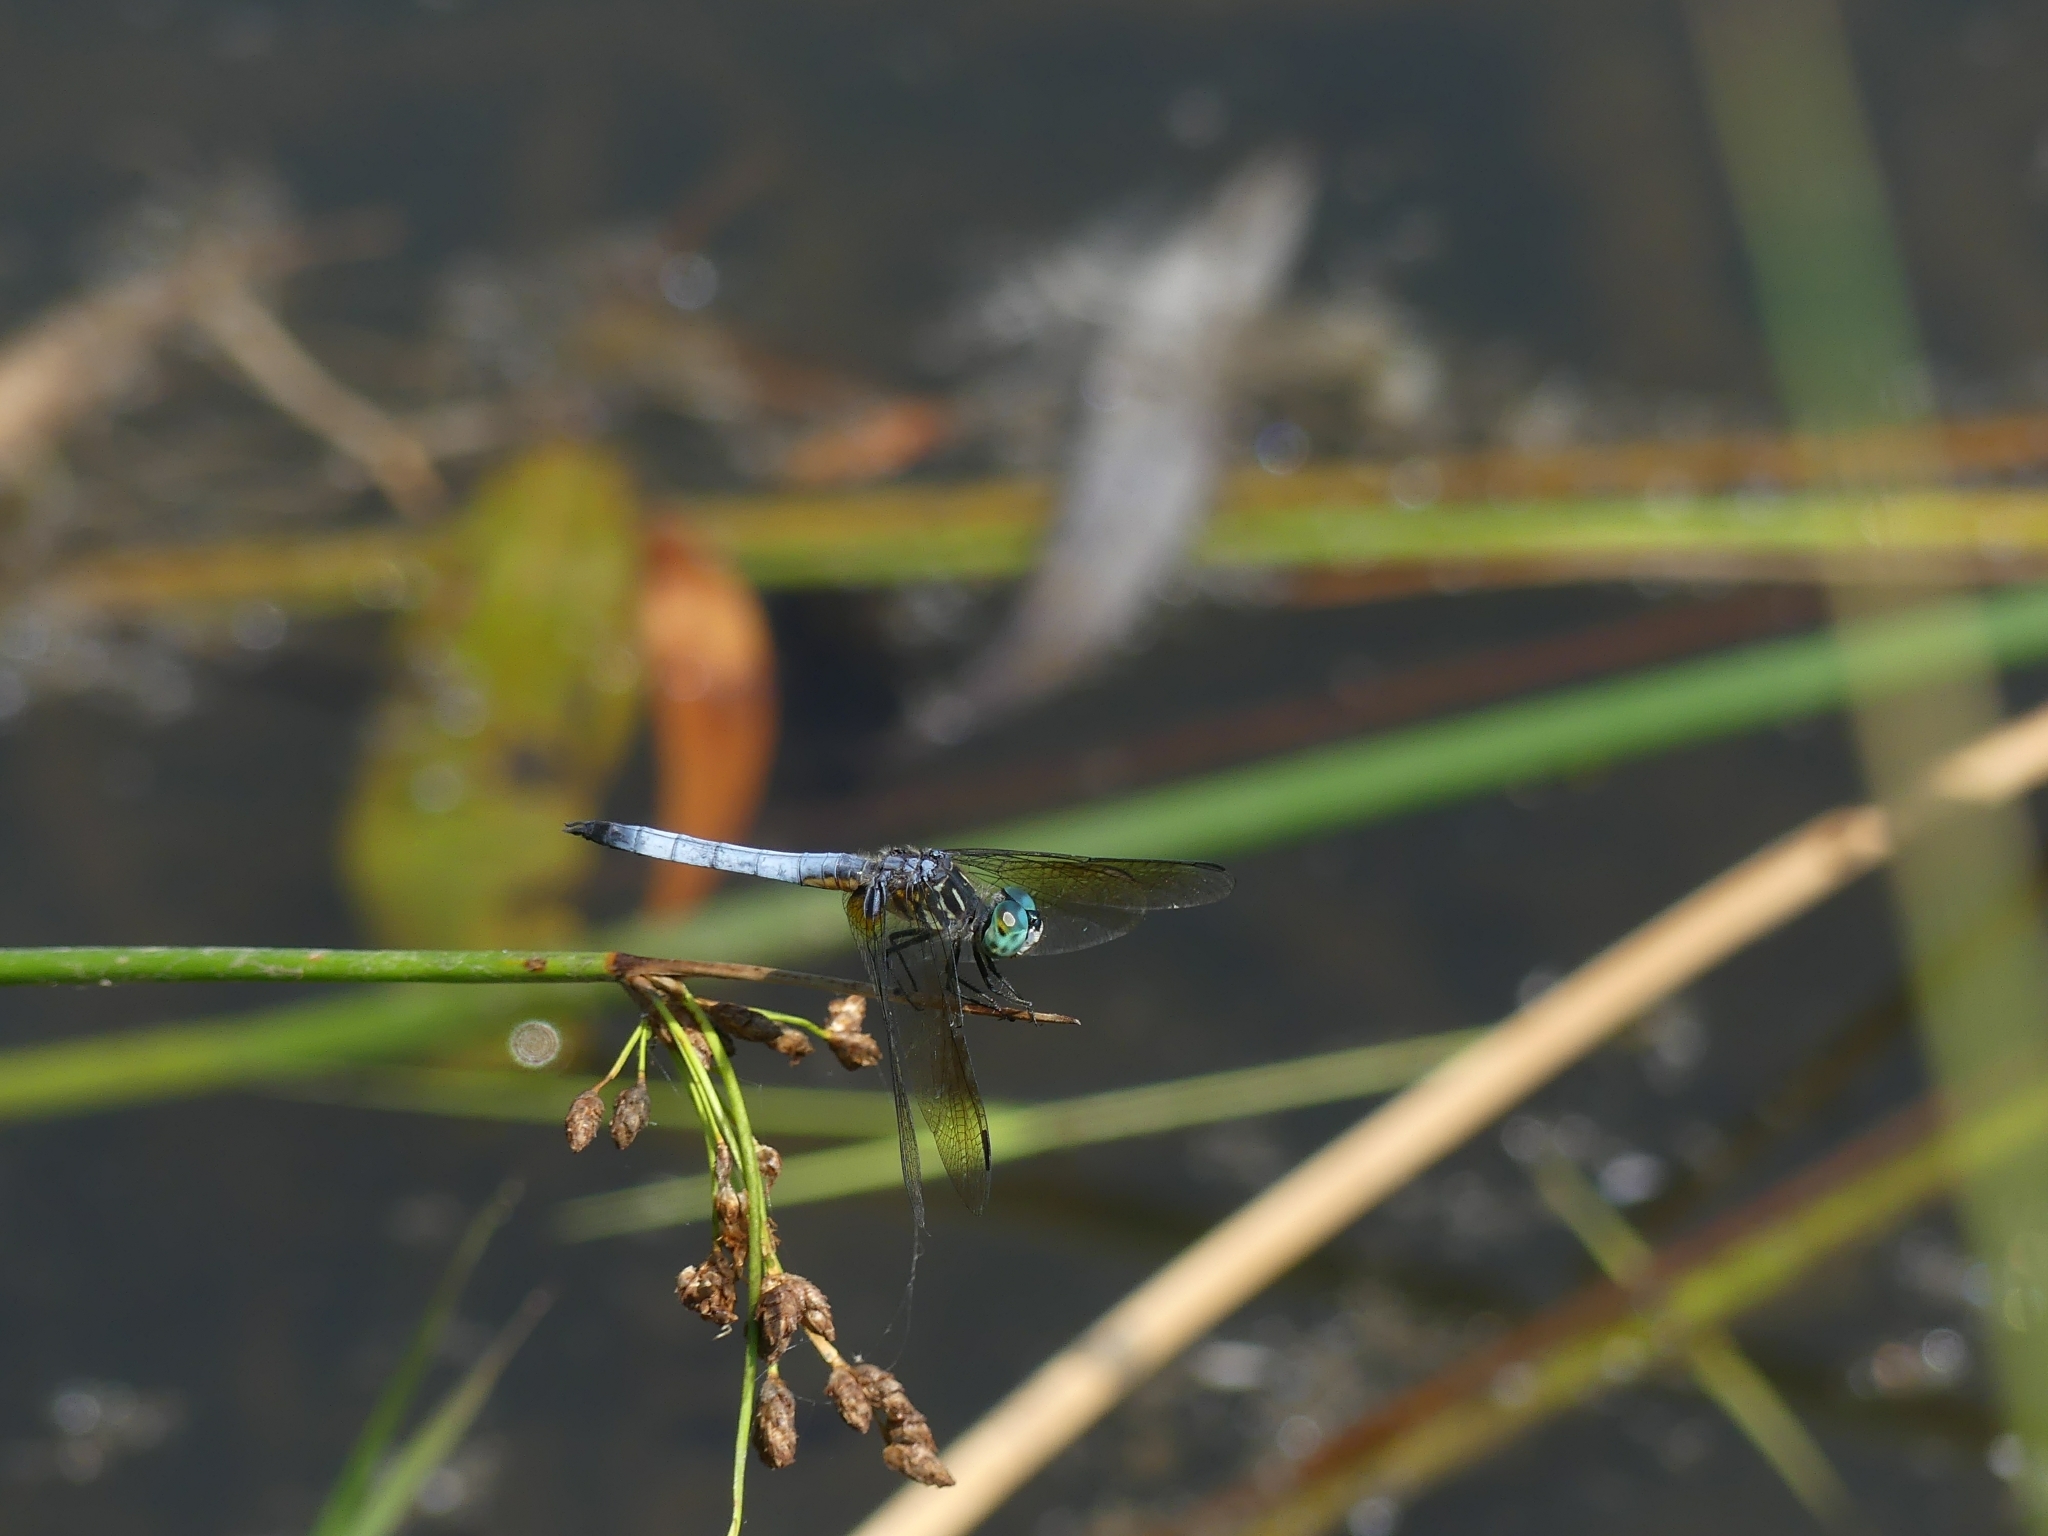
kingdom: Animalia
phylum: Arthropoda
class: Insecta
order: Odonata
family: Libellulidae
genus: Pachydiplax
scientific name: Pachydiplax longipennis
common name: Blue dasher
